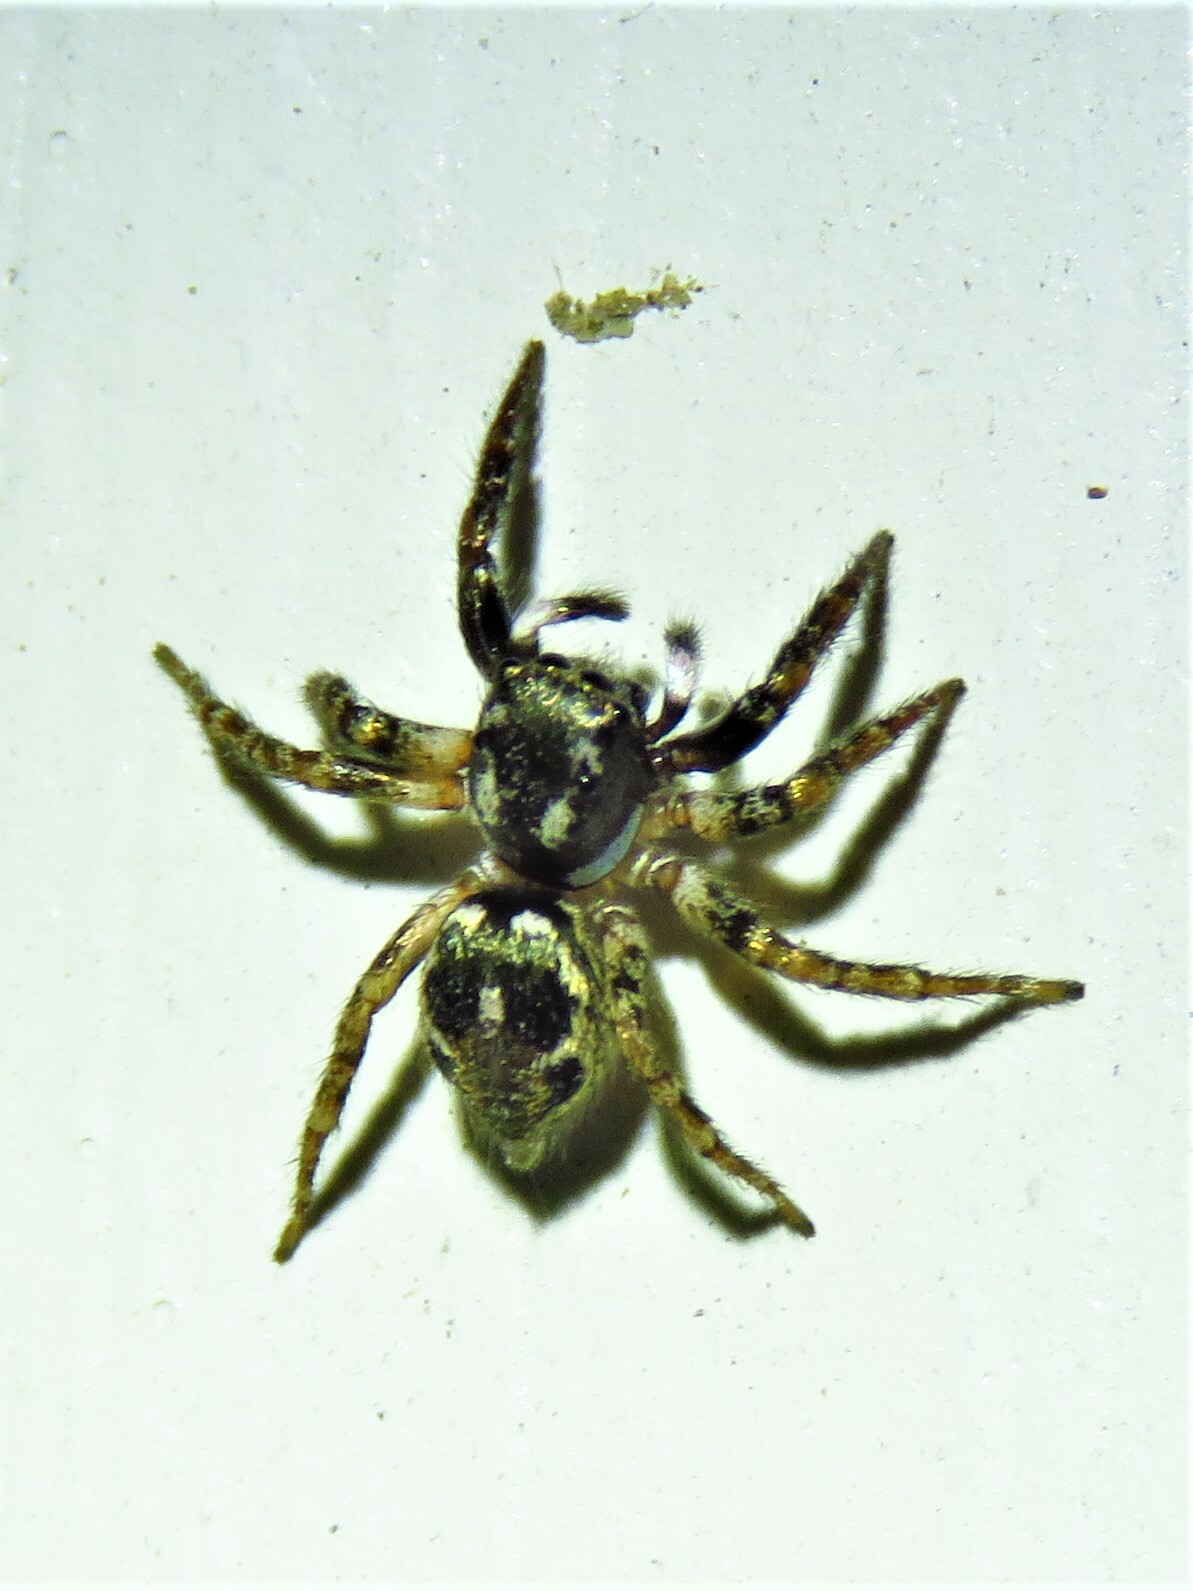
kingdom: Animalia
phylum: Arthropoda
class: Arachnida
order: Araneae
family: Salticidae
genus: Anasaitis
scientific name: Anasaitis canosa
